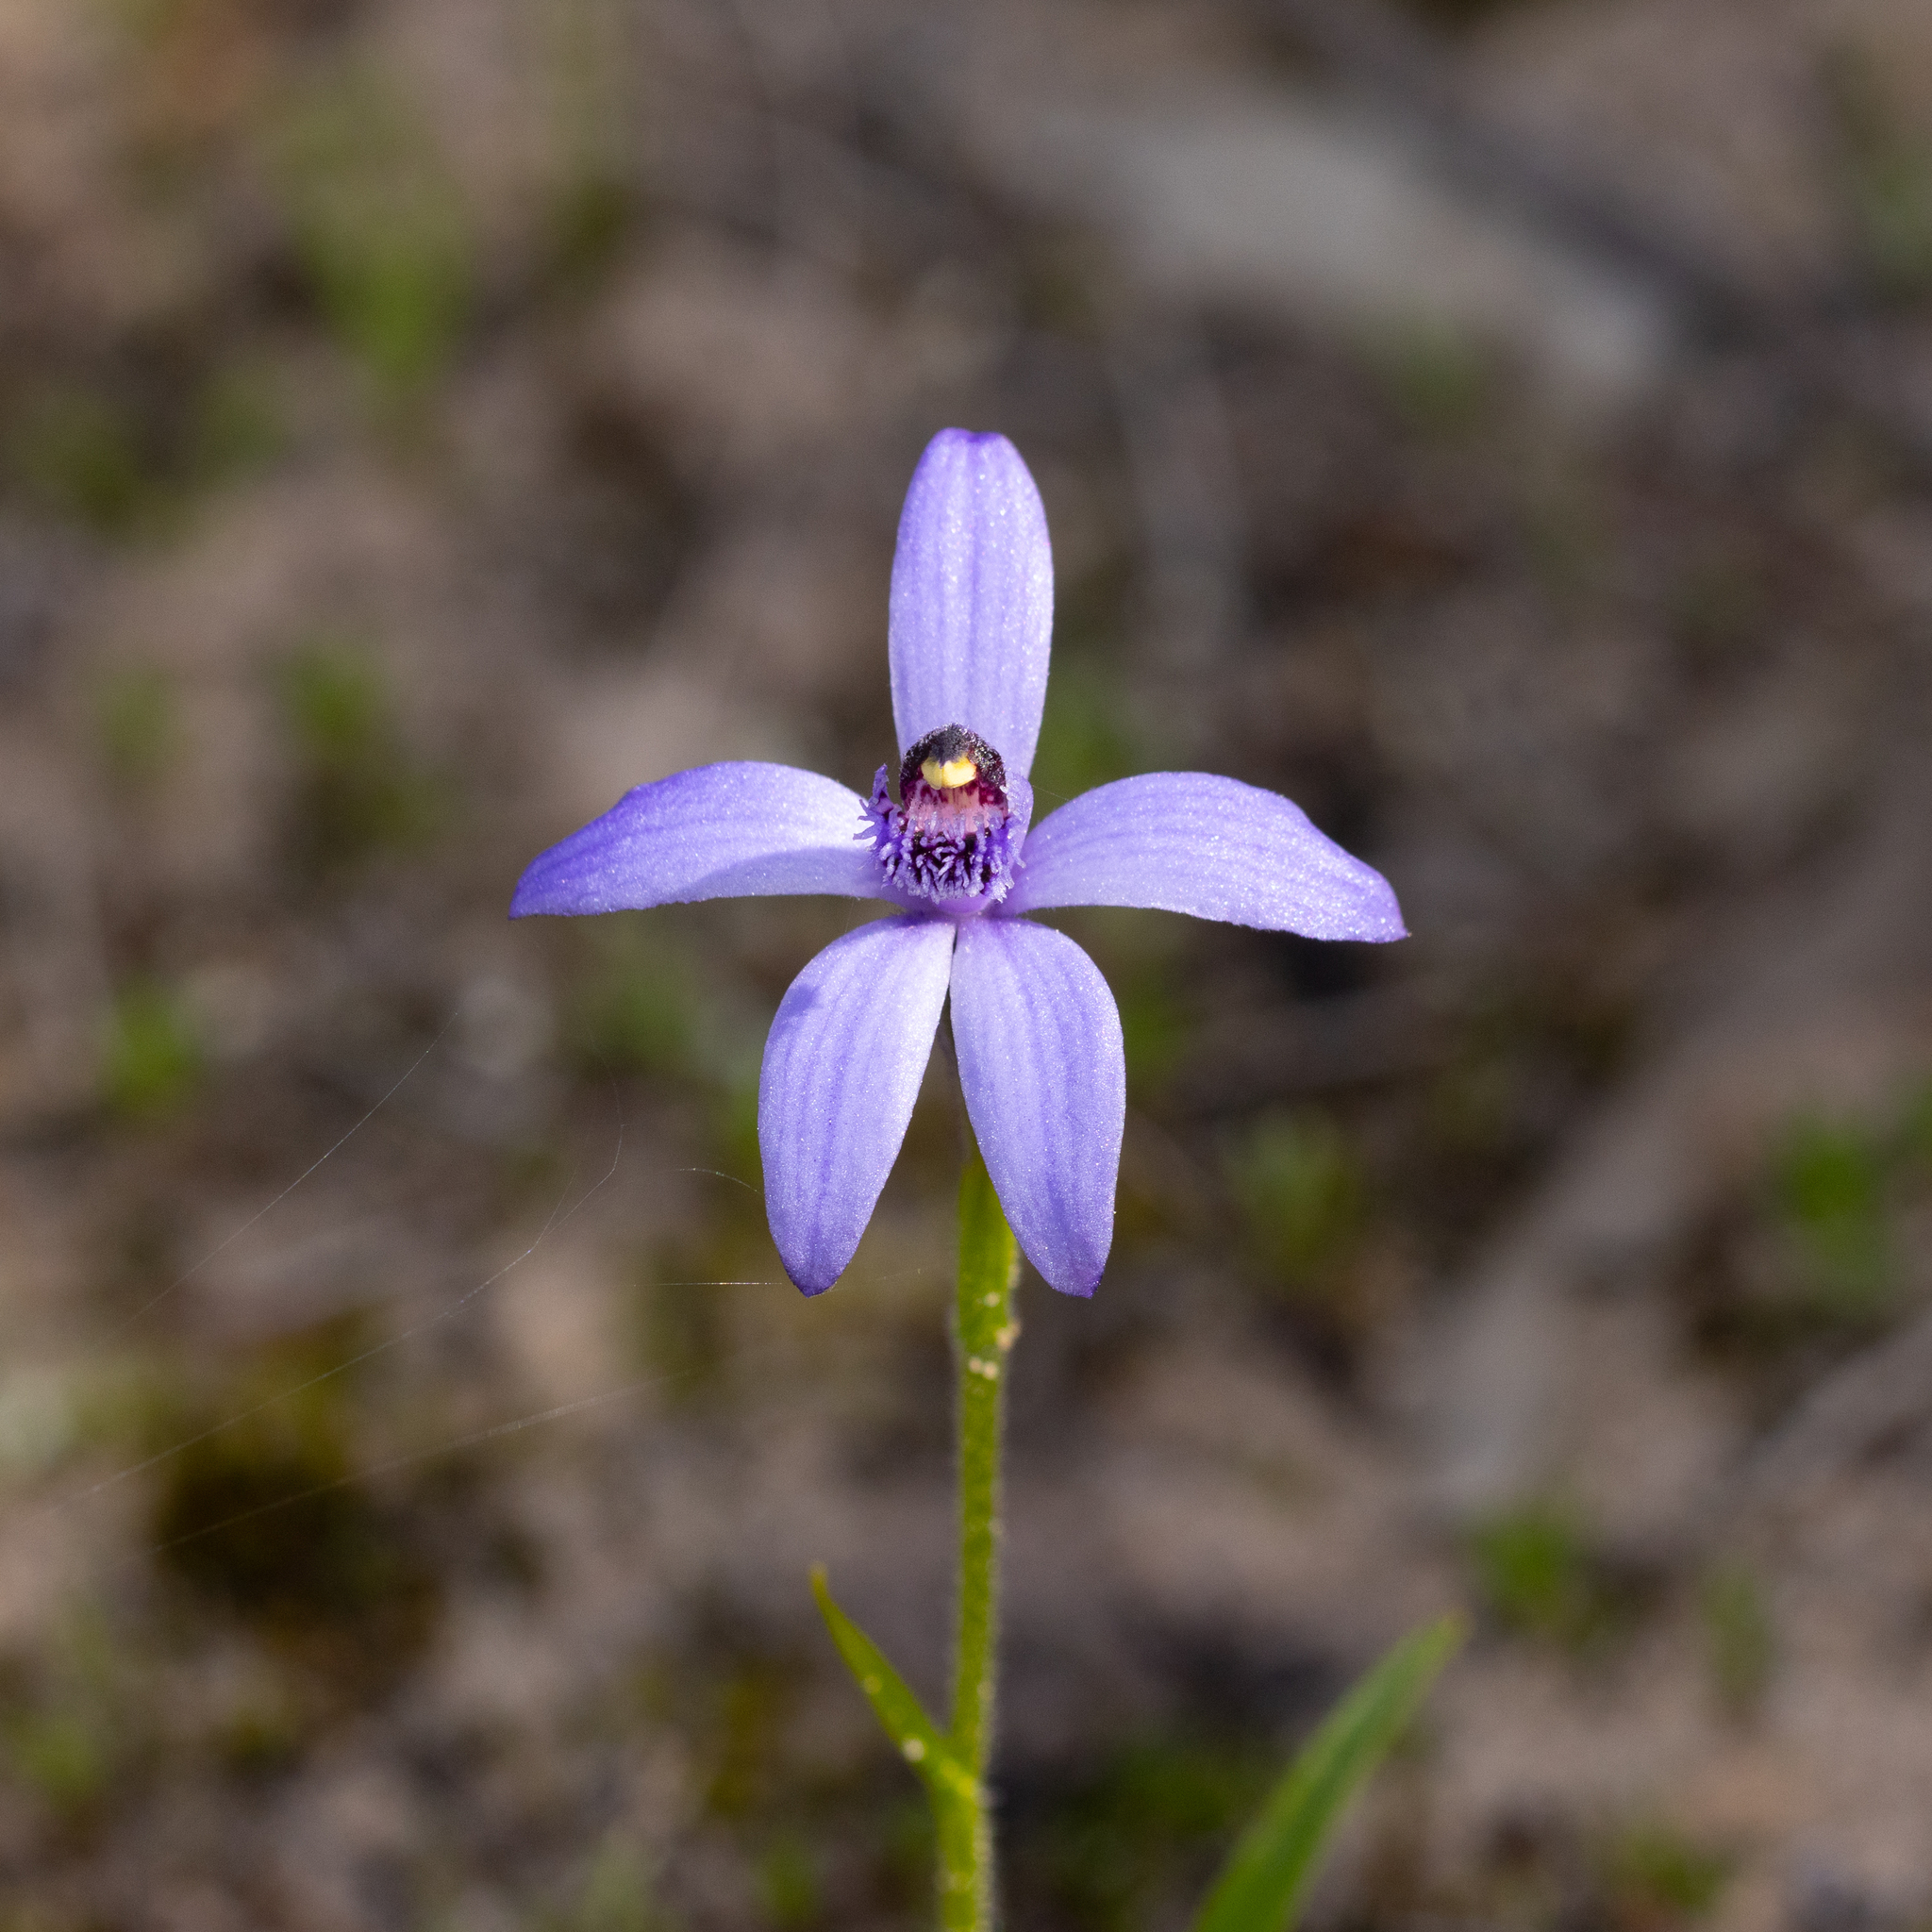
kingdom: Plantae
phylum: Tracheophyta
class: Liliopsida
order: Asparagales
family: Orchidaceae
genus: Pheladenia
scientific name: Pheladenia deformis
